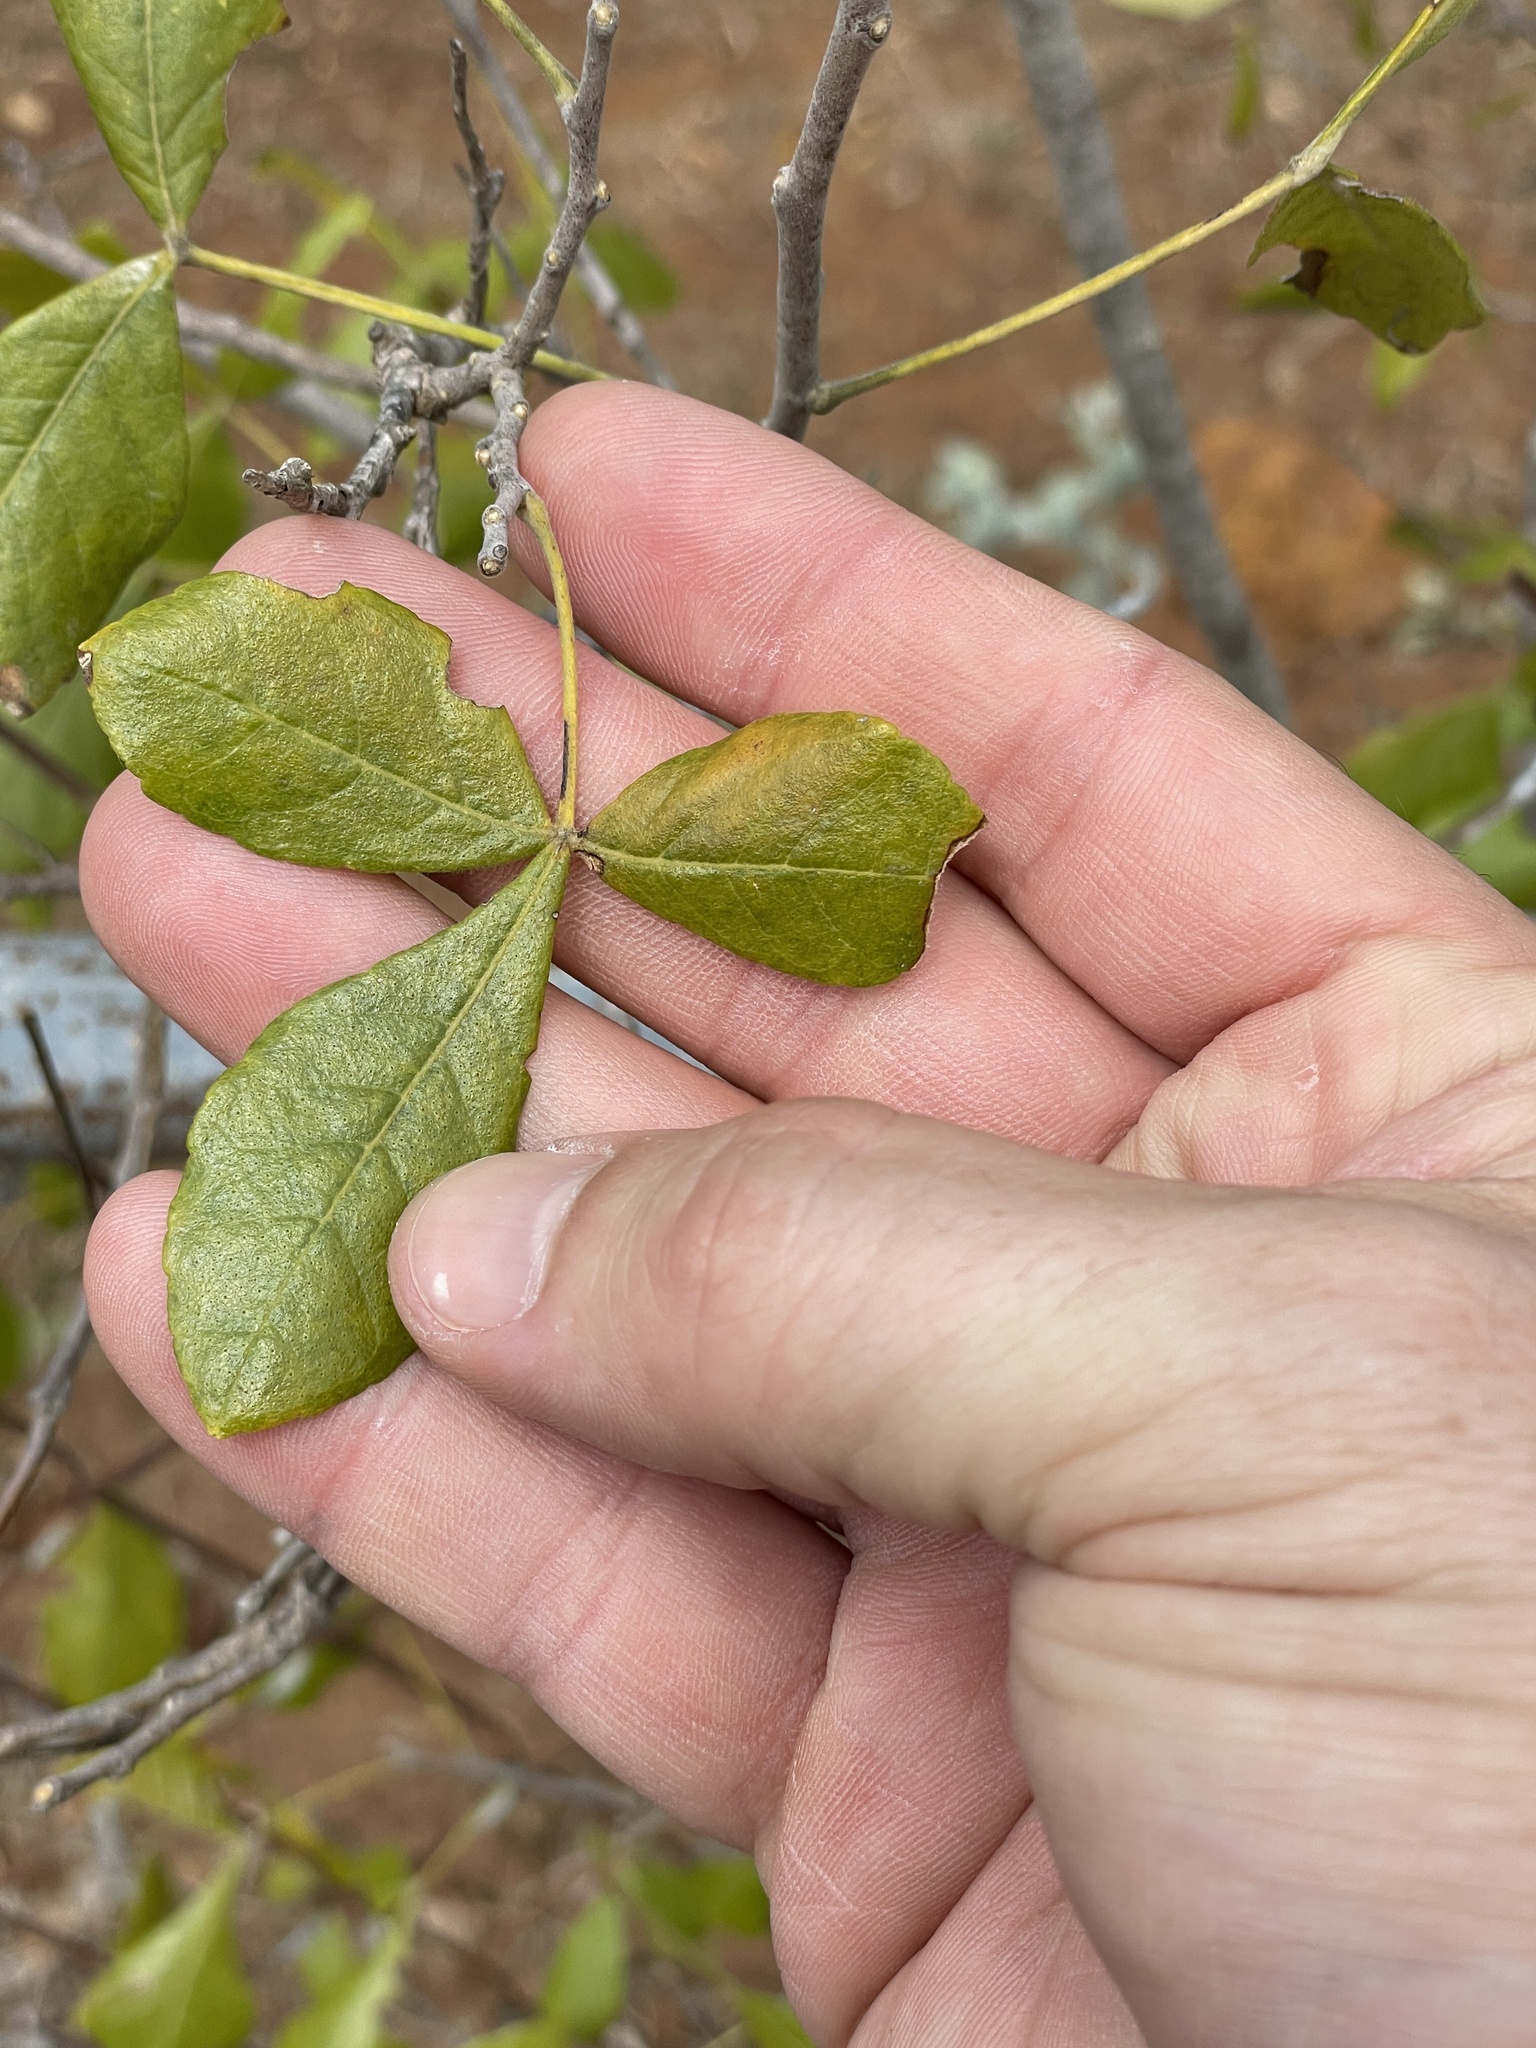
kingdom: Plantae
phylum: Tracheophyta
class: Magnoliopsida
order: Sapindales
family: Rutaceae
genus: Ptelea
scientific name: Ptelea trifoliata
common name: Common hop-tree
